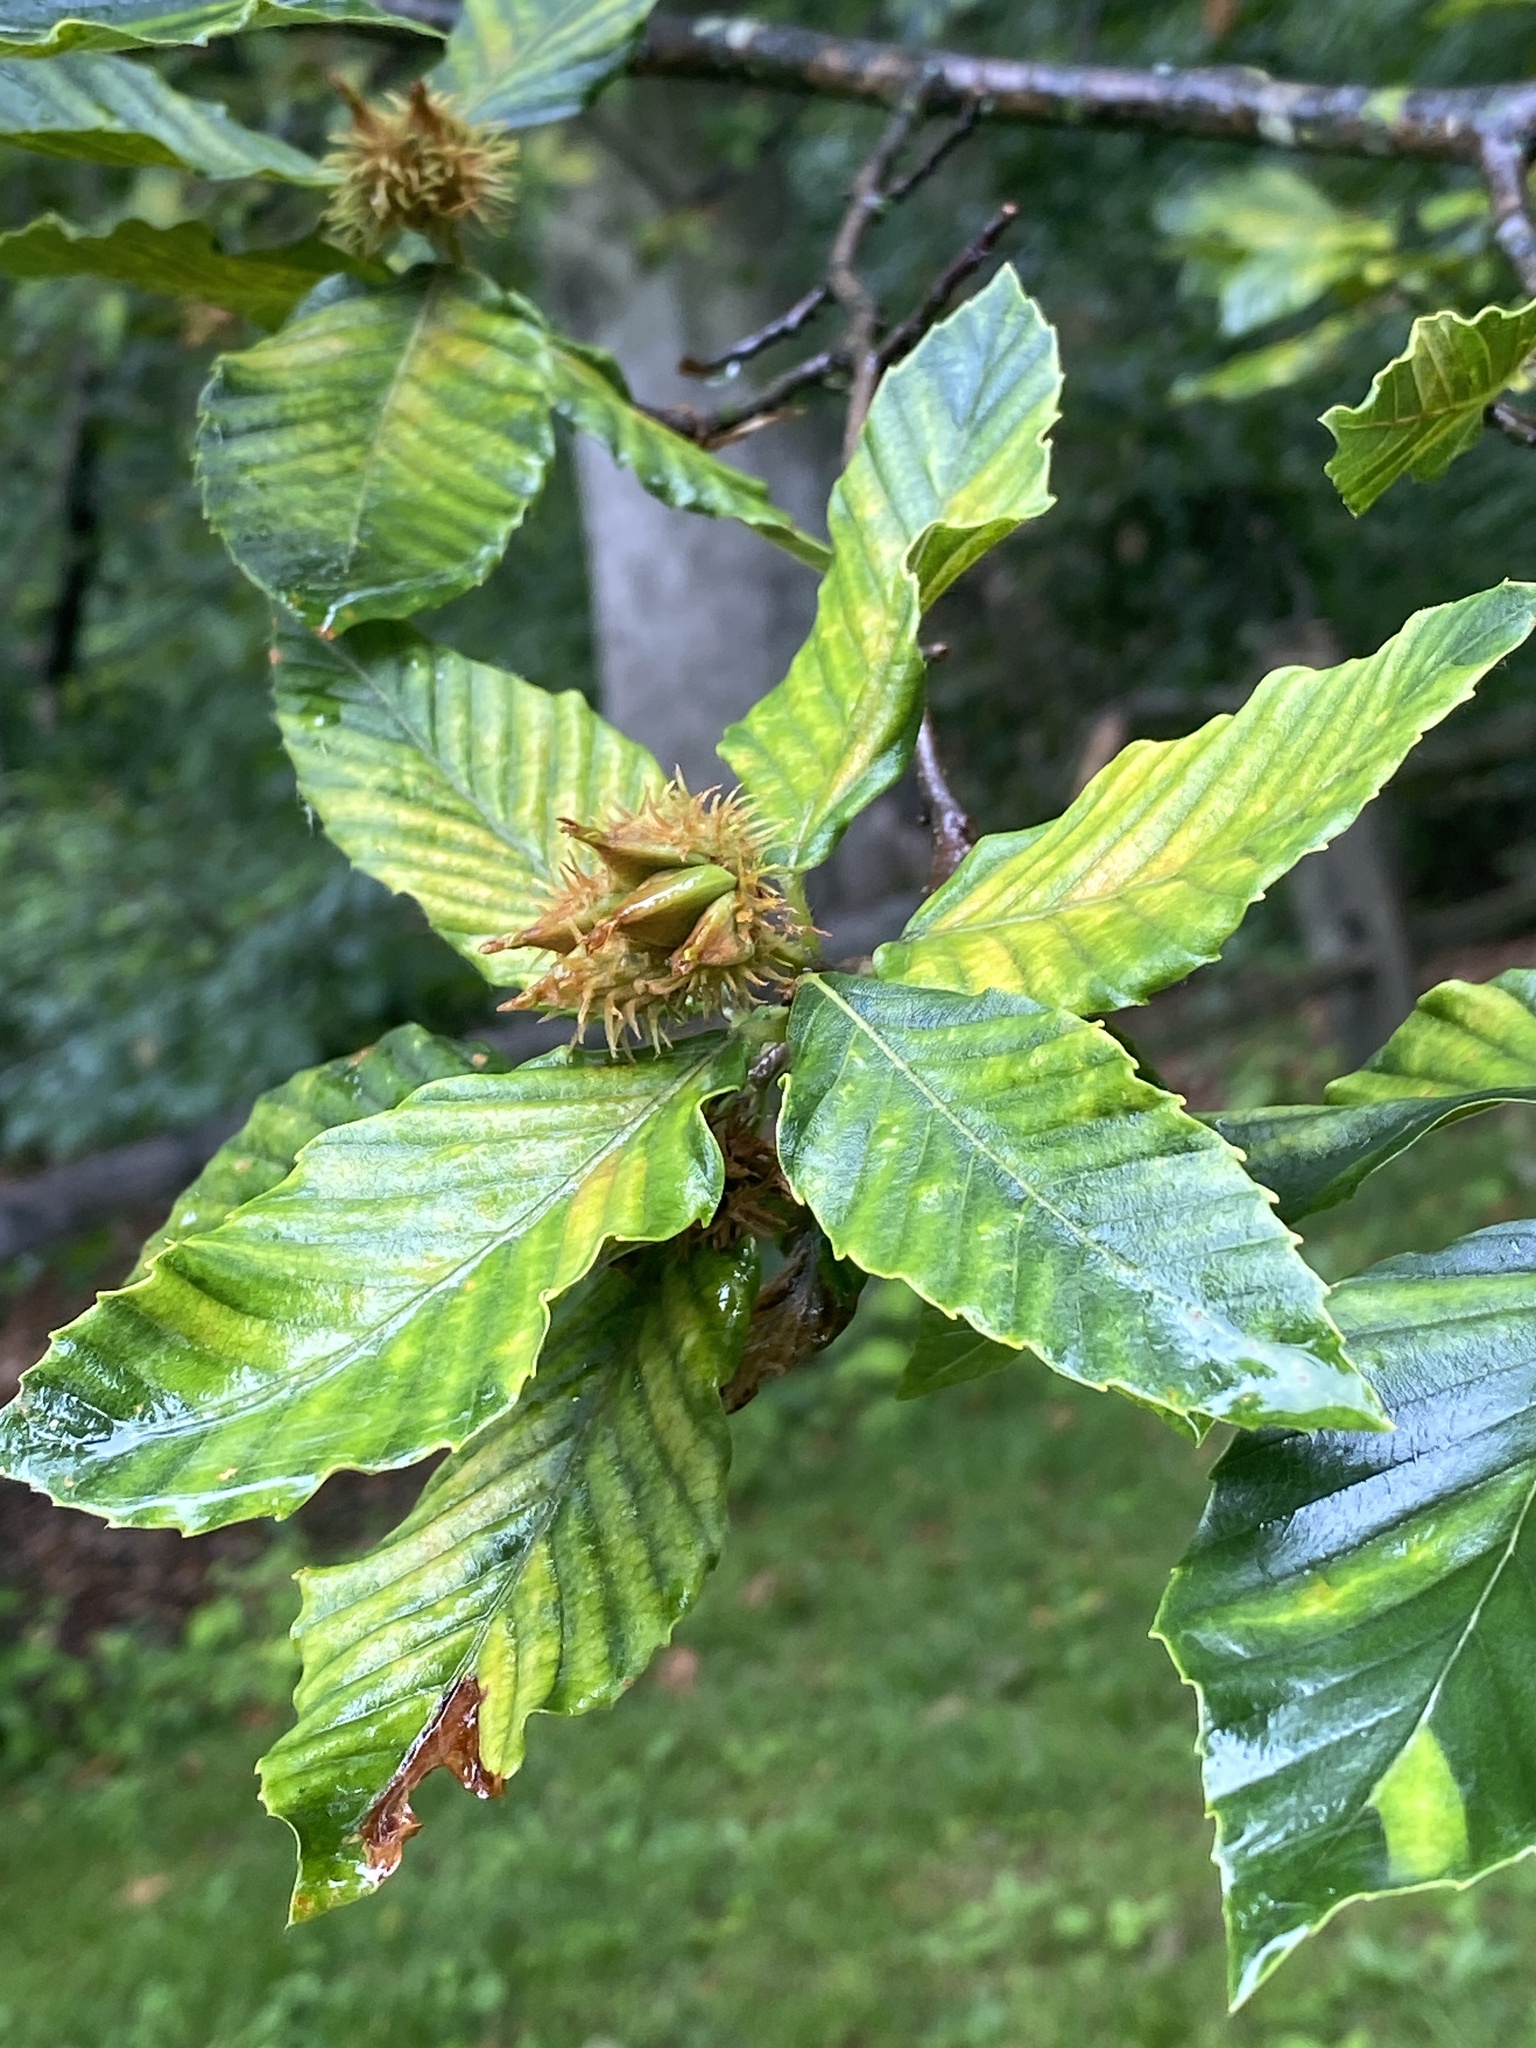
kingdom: Animalia
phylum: Nematoda
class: Chromadorea
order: Rhabditida
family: Anguinidae
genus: Litylenchus
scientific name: Litylenchus crenatae
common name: Beech leaf disease
